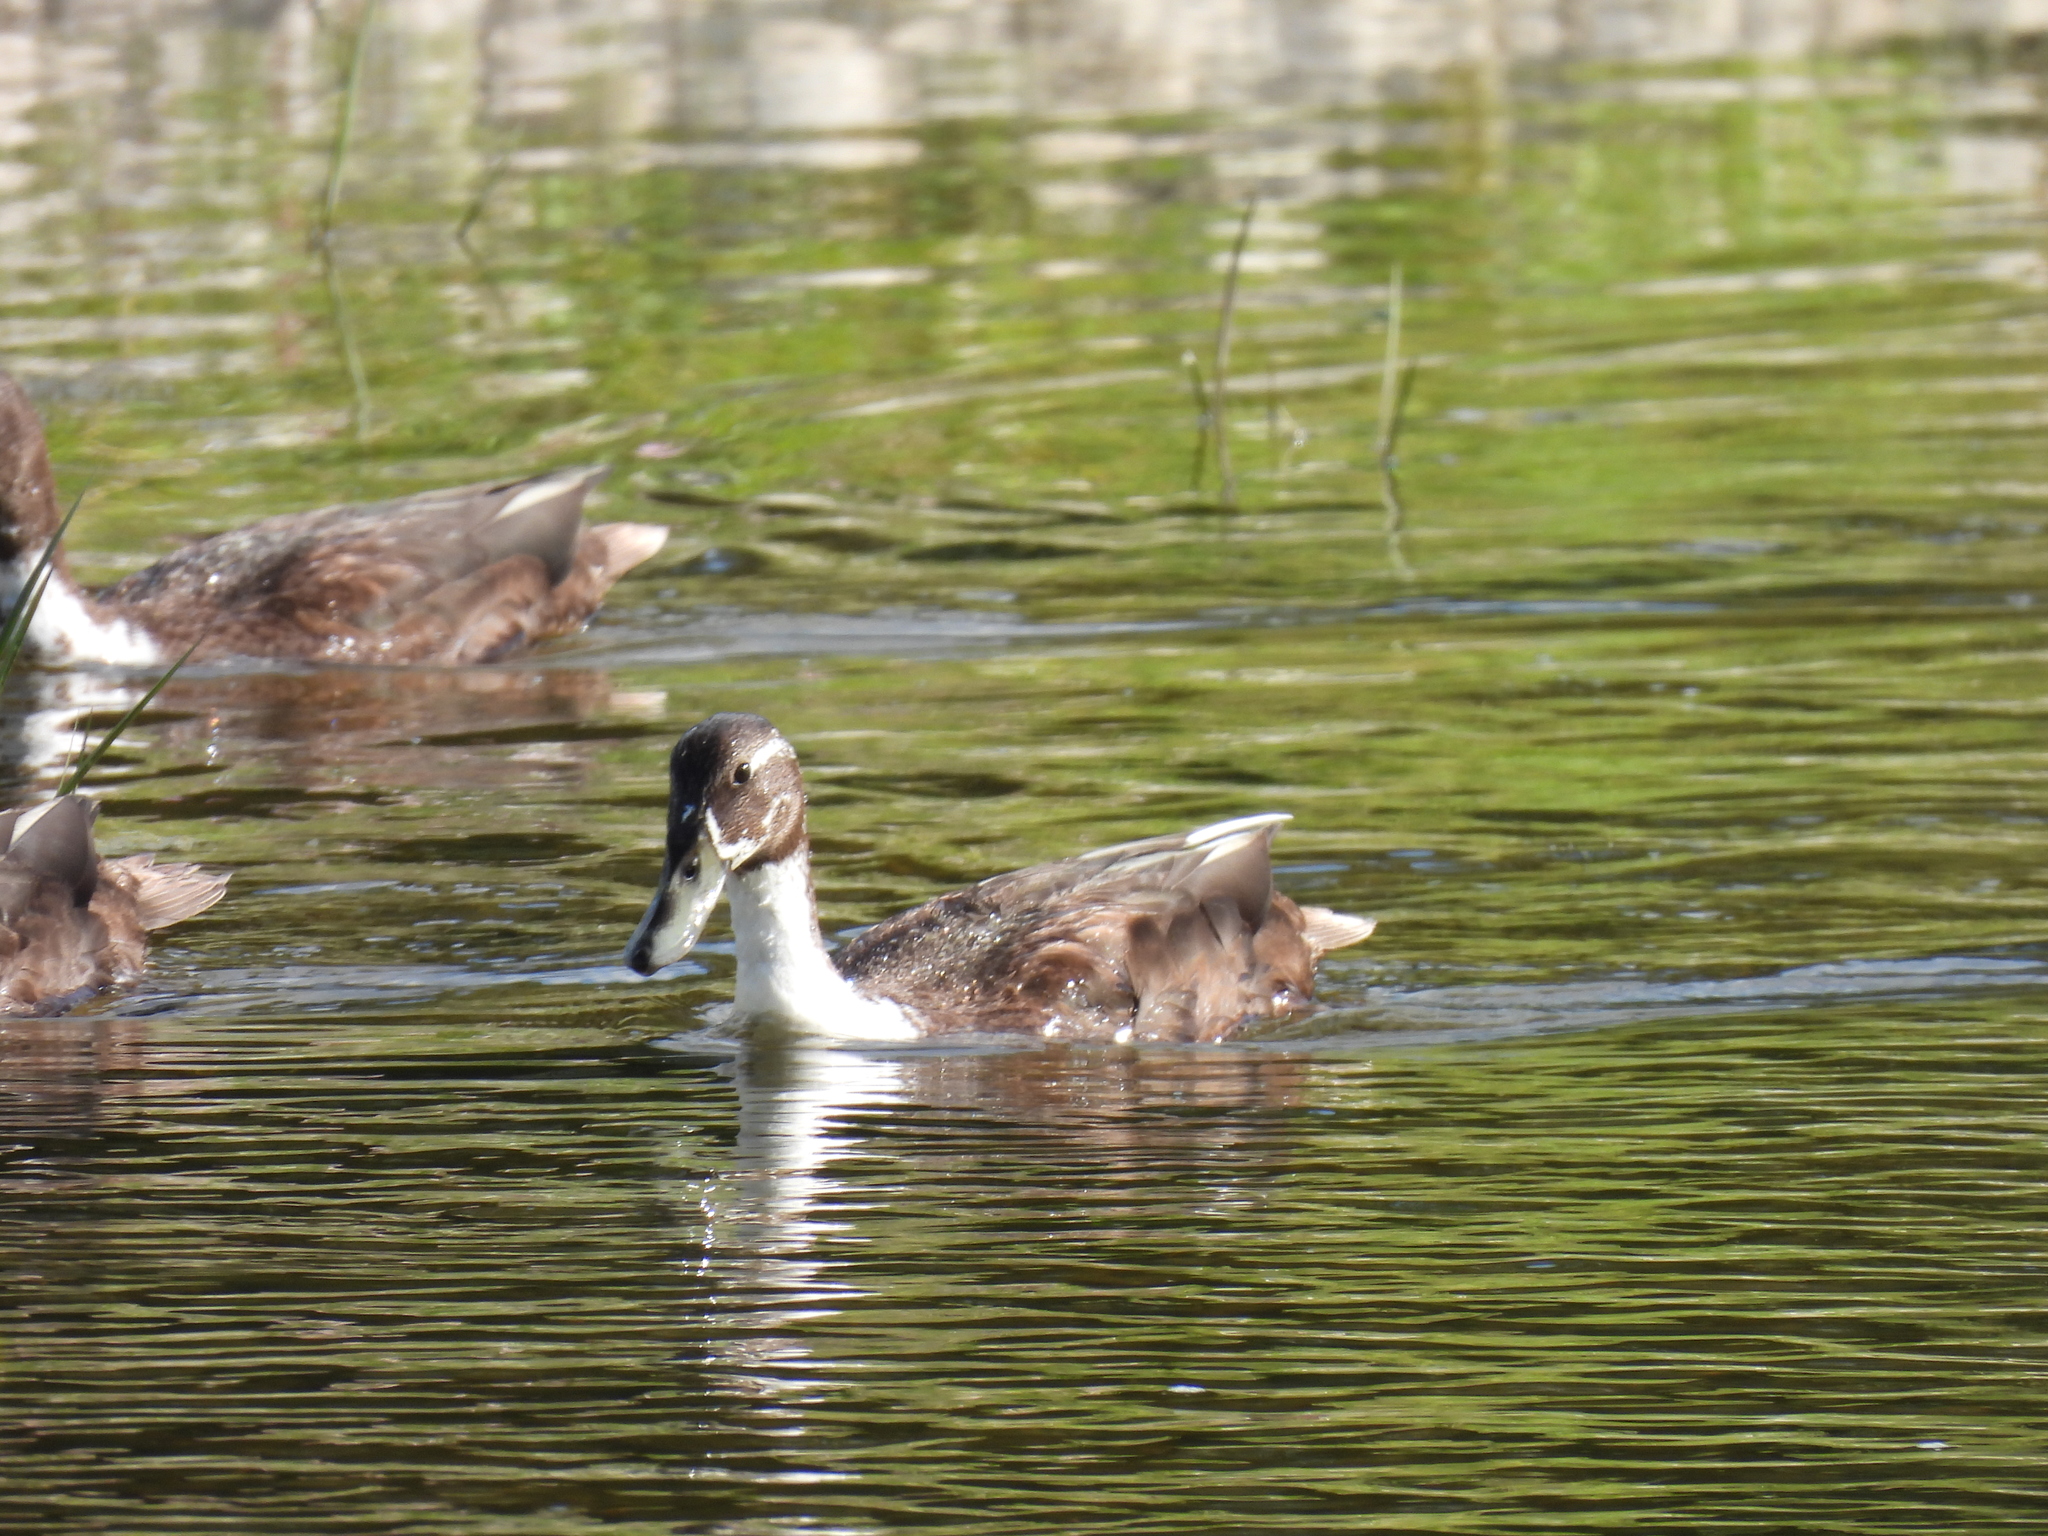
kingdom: Animalia
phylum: Chordata
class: Aves
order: Anseriformes
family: Anatidae
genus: Anas
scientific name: Anas platyrhynchos
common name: Mallard
